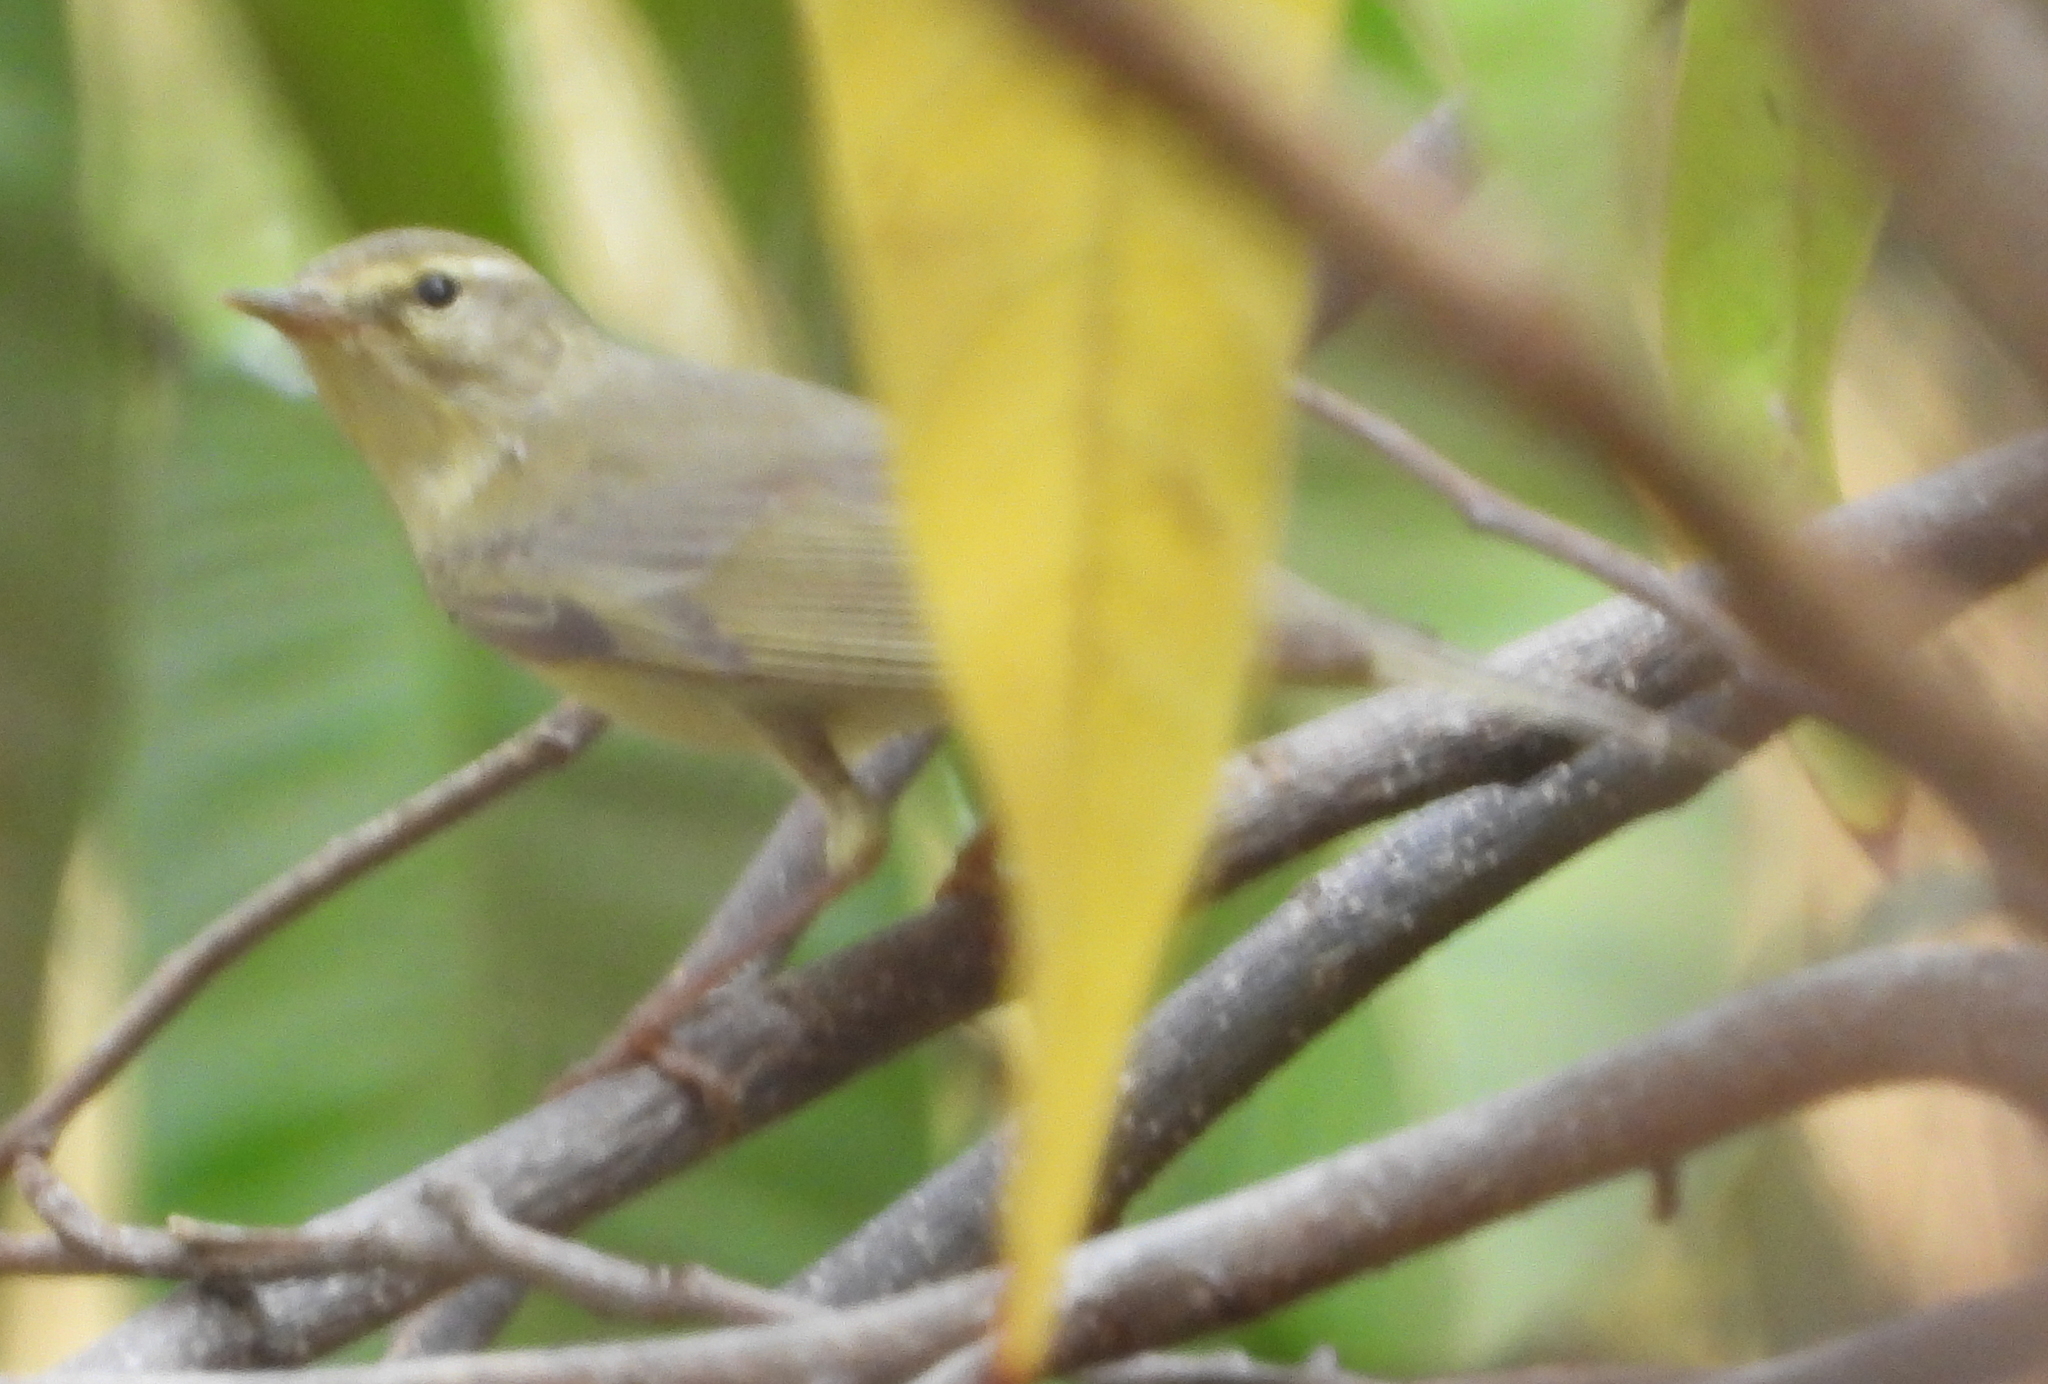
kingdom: Animalia
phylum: Chordata
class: Aves
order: Passeriformes
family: Phylloscopidae
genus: Phylloscopus
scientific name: Phylloscopus trochilus
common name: Willow warbler
